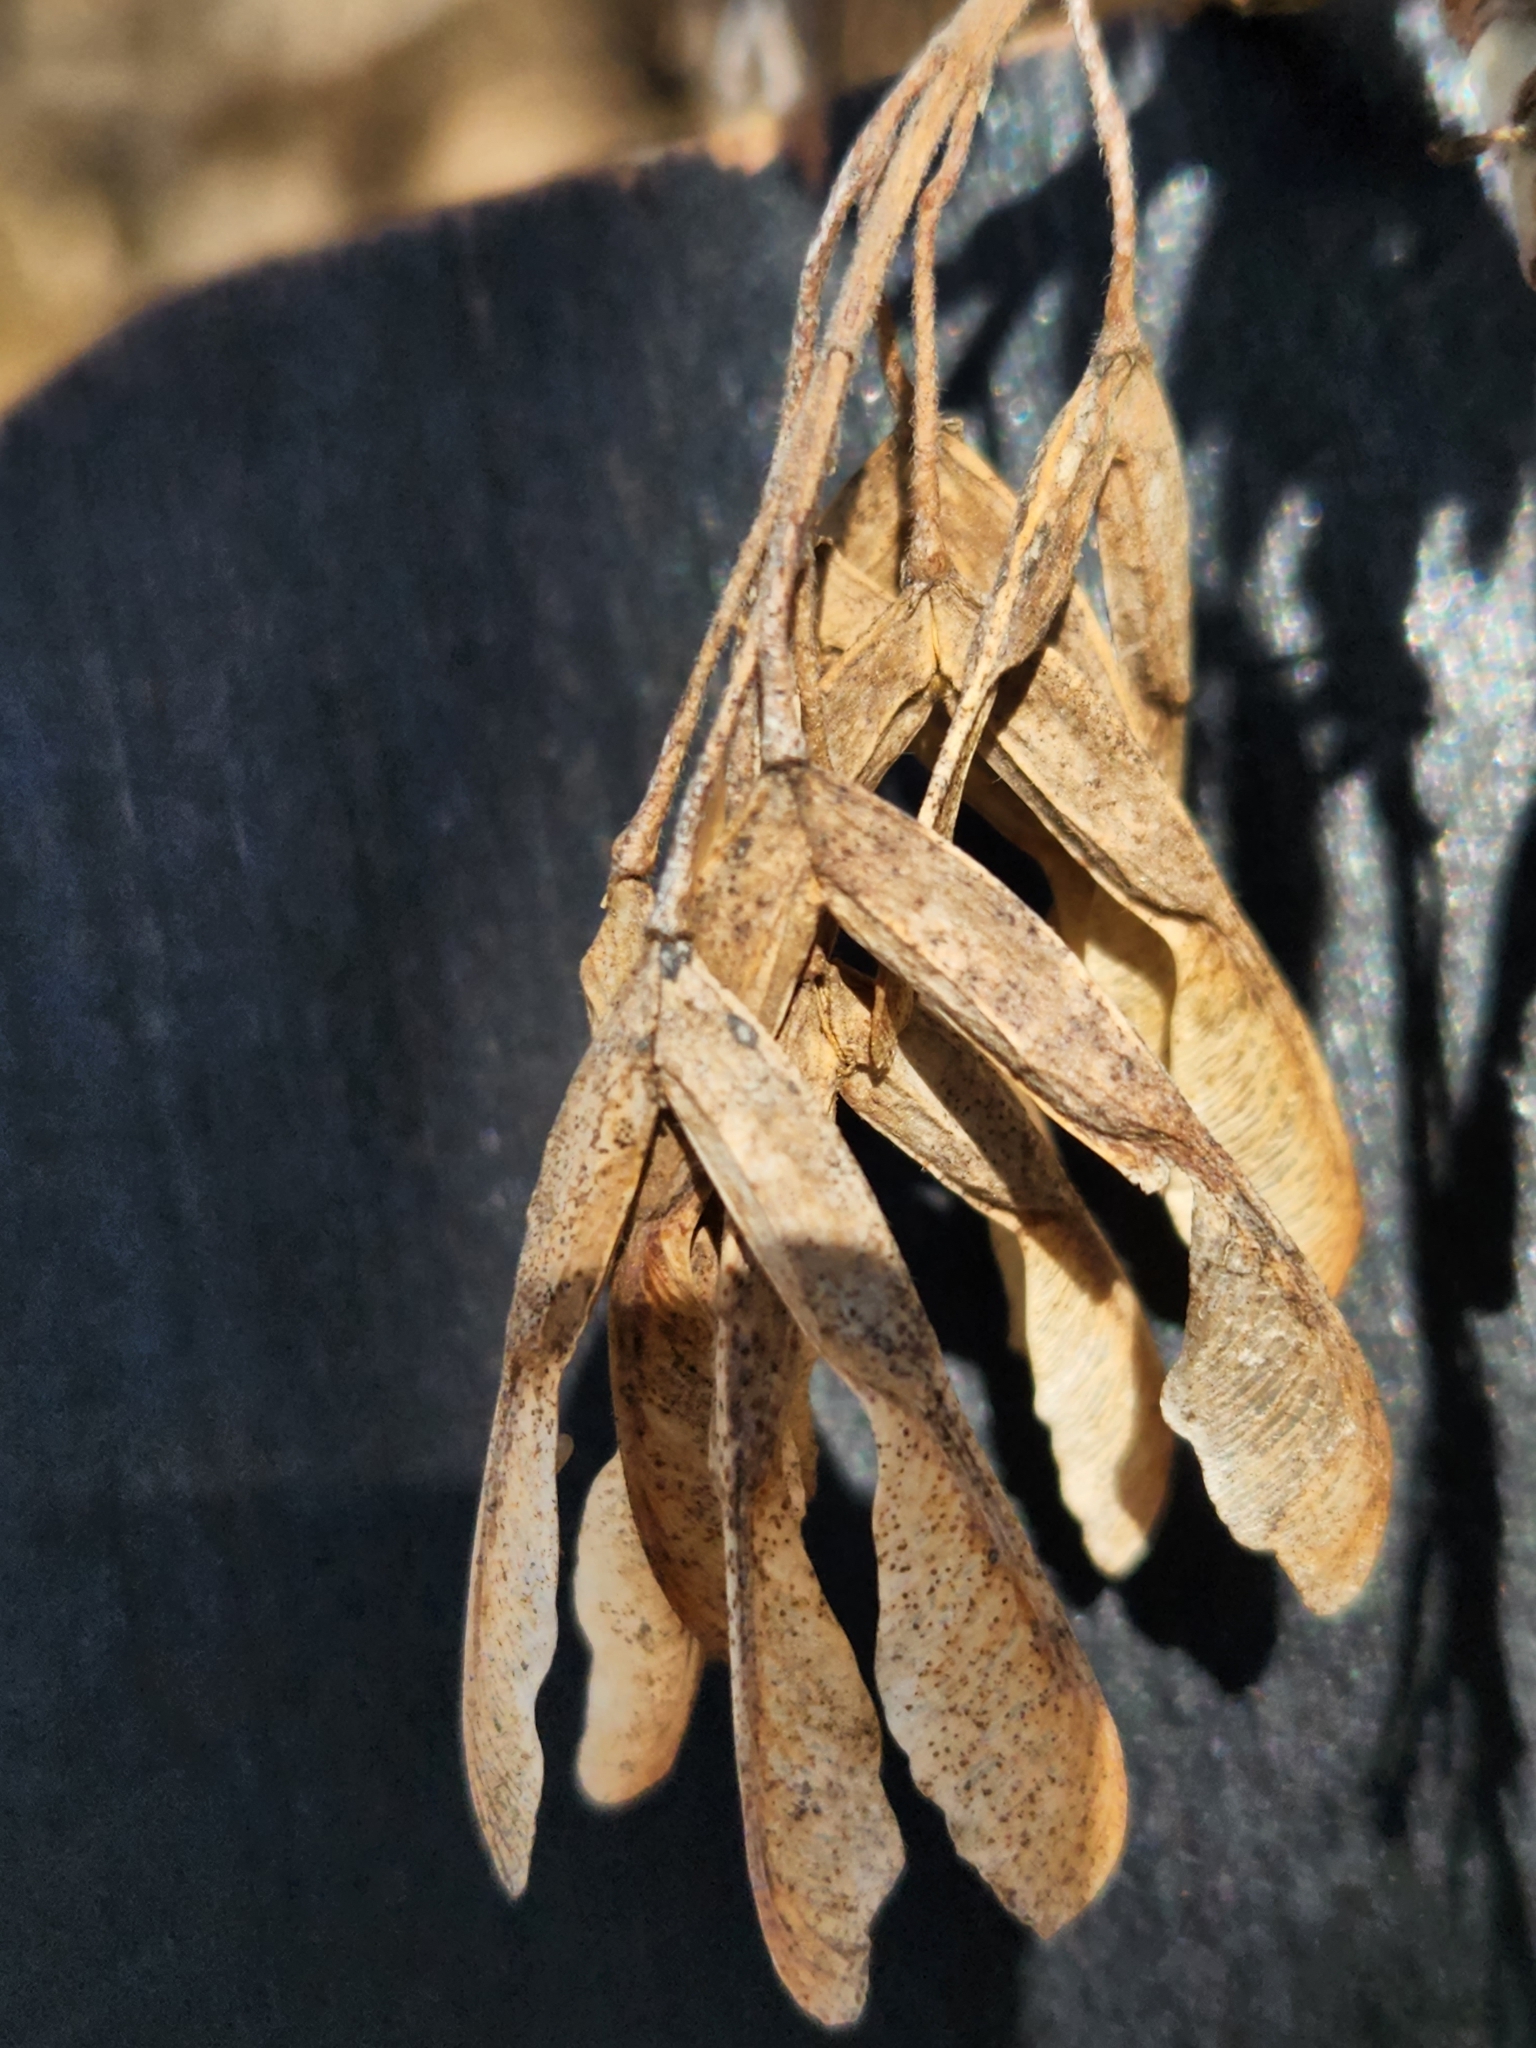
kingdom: Plantae
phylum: Tracheophyta
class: Magnoliopsida
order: Sapindales
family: Sapindaceae
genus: Acer
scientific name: Acer negundo
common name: Ashleaf maple
